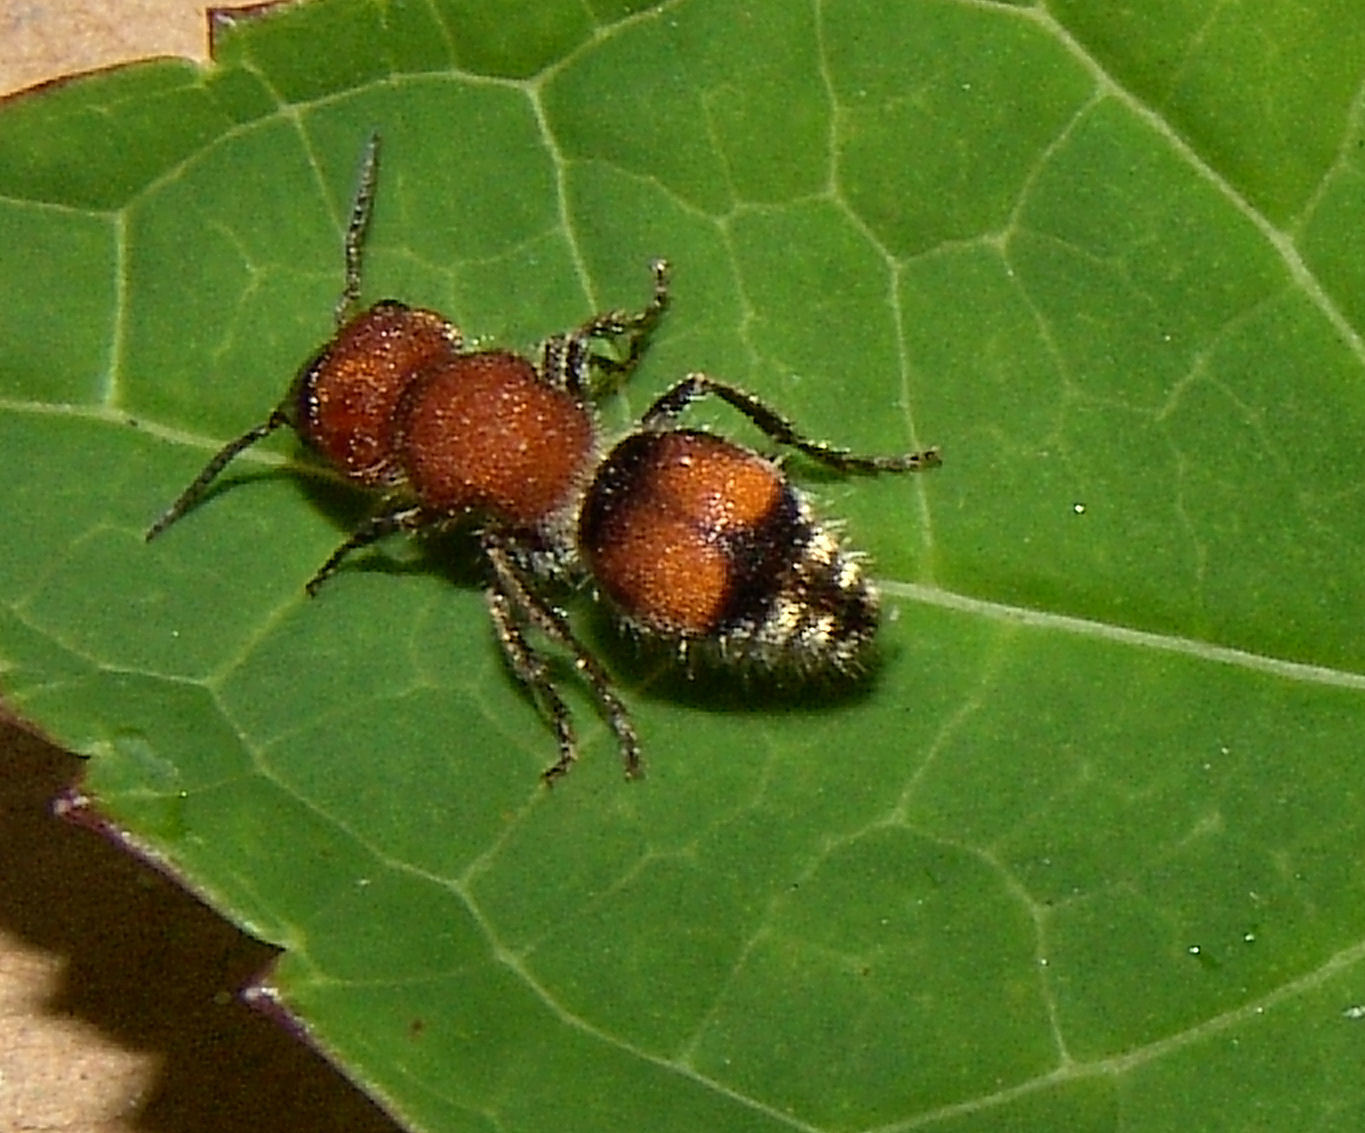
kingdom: Animalia
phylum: Arthropoda
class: Insecta
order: Hymenoptera
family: Mutillidae
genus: Pseudomethoca
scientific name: Pseudomethoca
